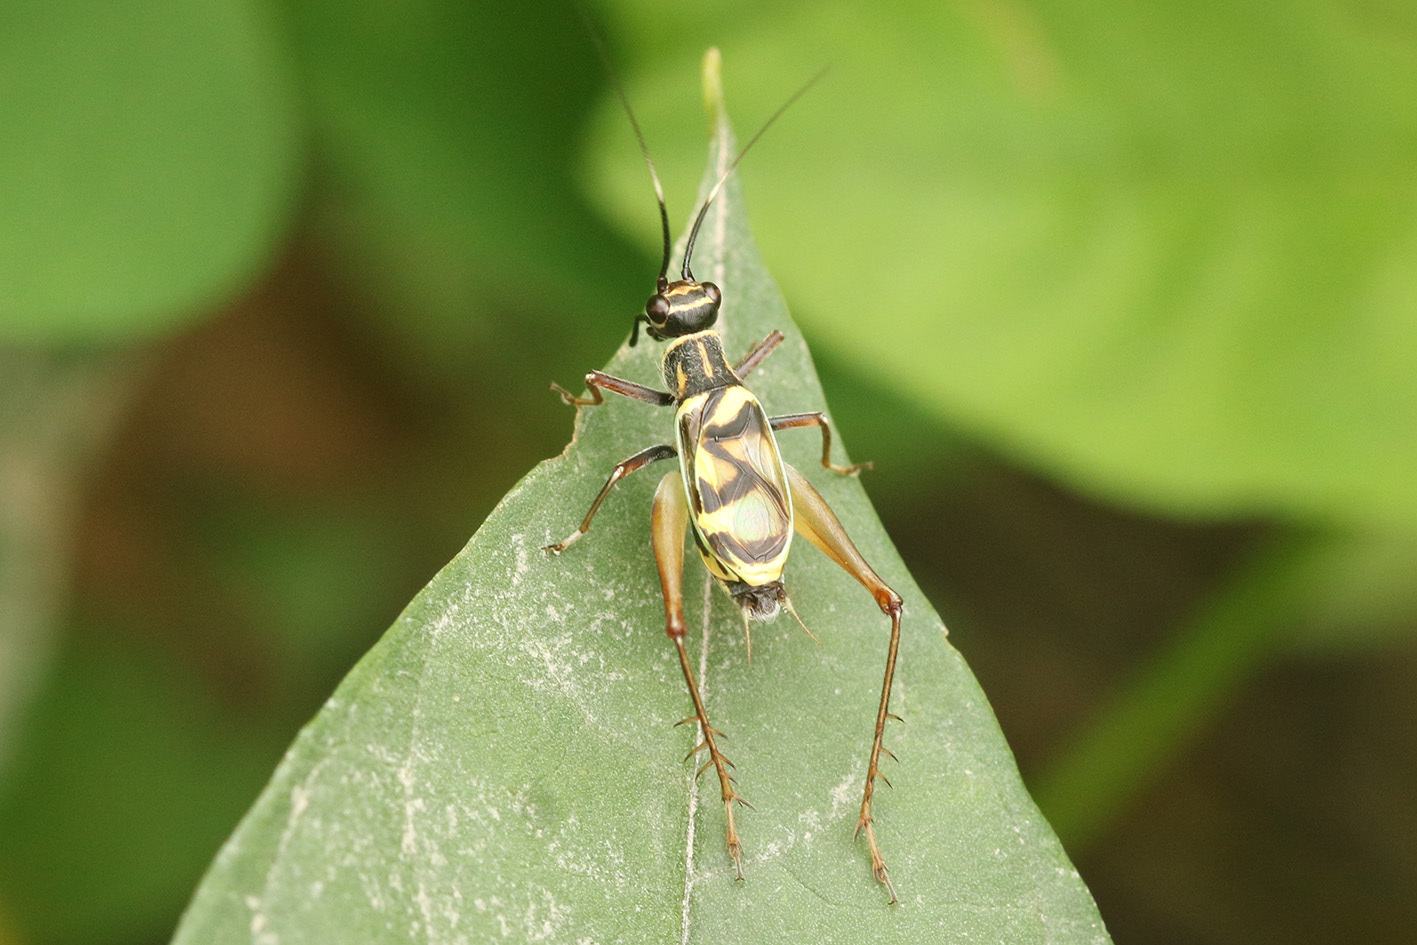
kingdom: Animalia
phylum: Arthropoda
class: Insecta
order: Orthoptera
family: Trigonidiidae
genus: Phylloscyrtus
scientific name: Phylloscyrtus amoenus
